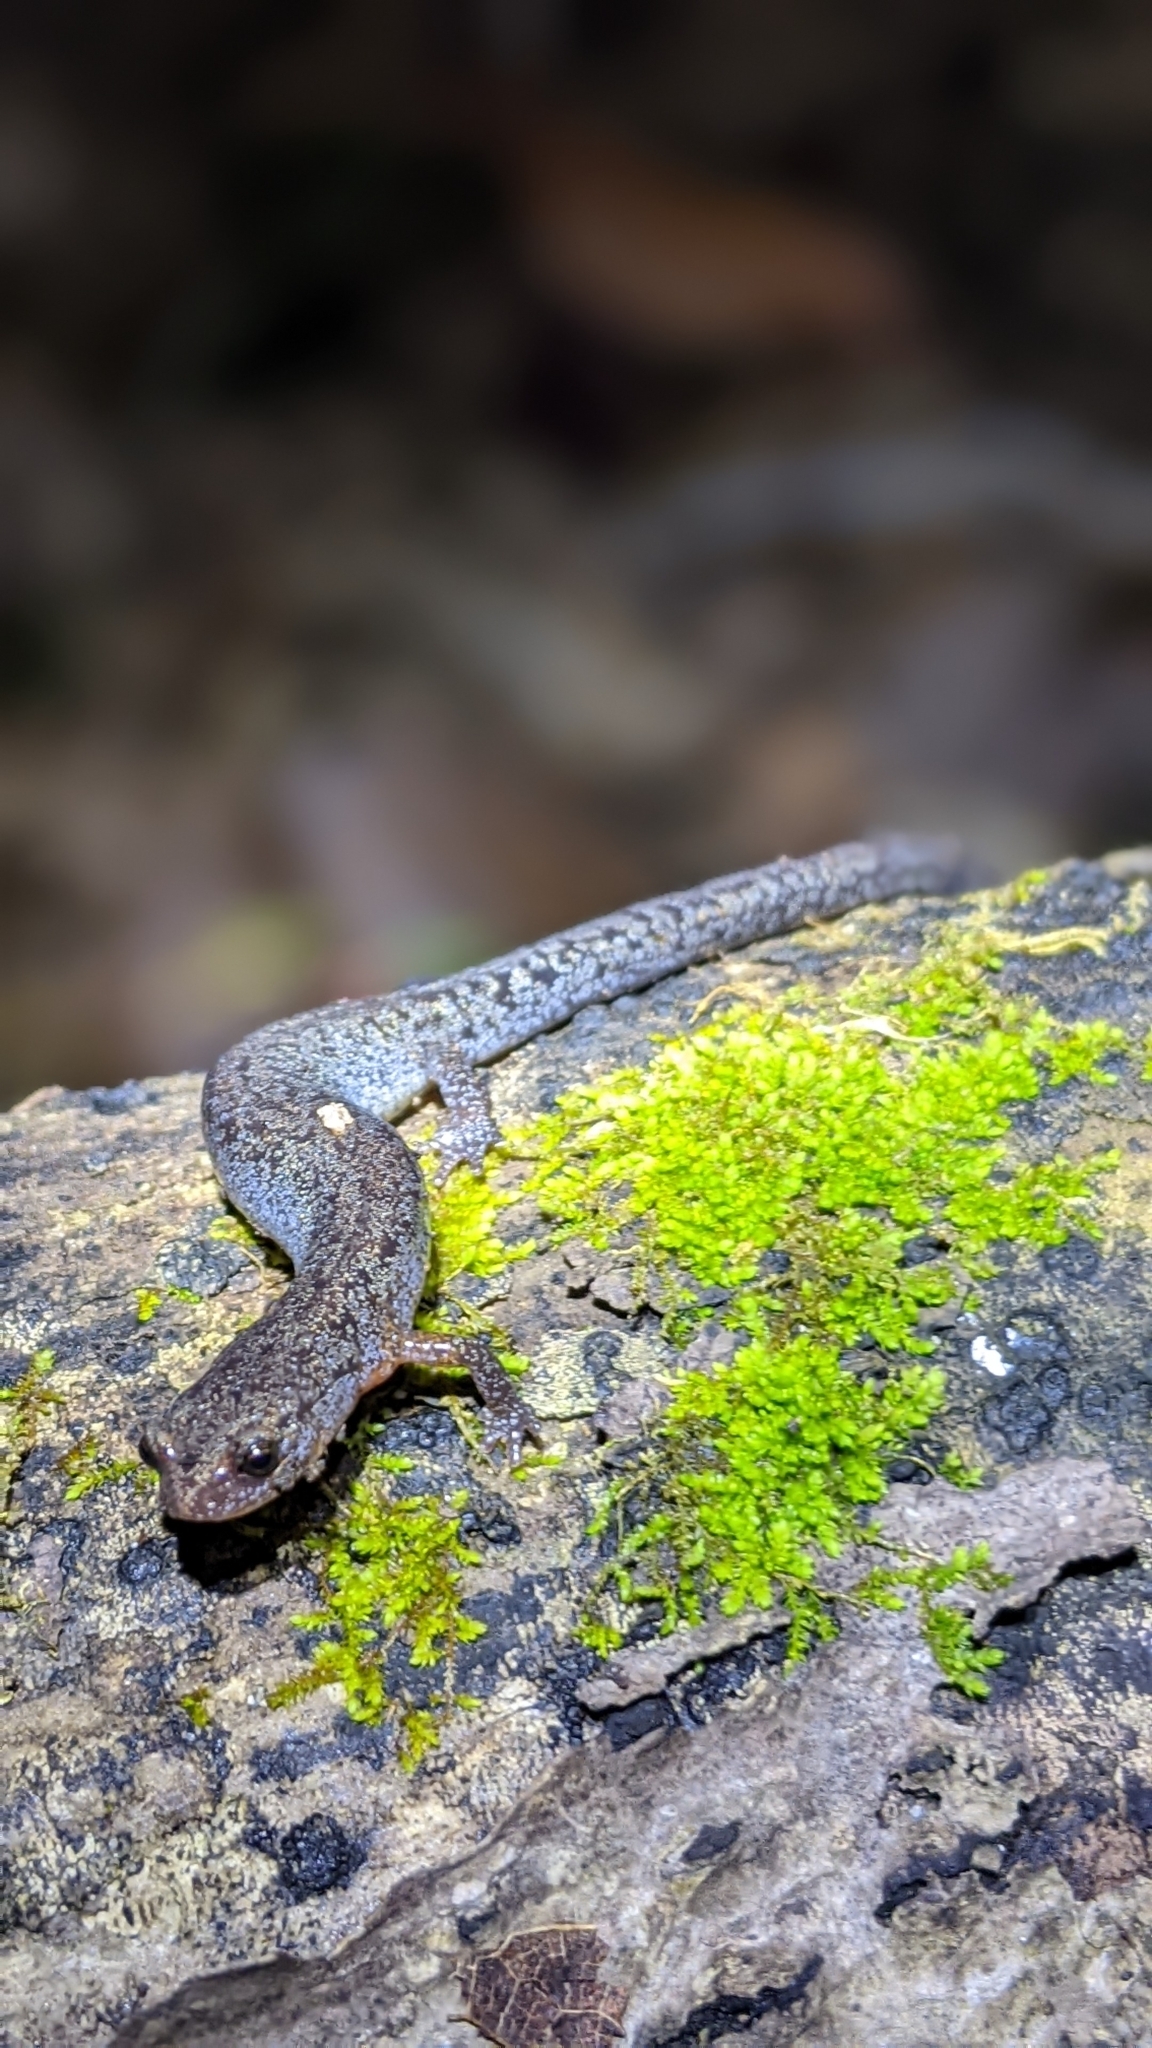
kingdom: Animalia
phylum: Chordata
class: Amphibia
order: Caudata
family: Plethodontidae
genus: Plethodon
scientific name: Plethodon ventralis
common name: Southern zigzag salamander
